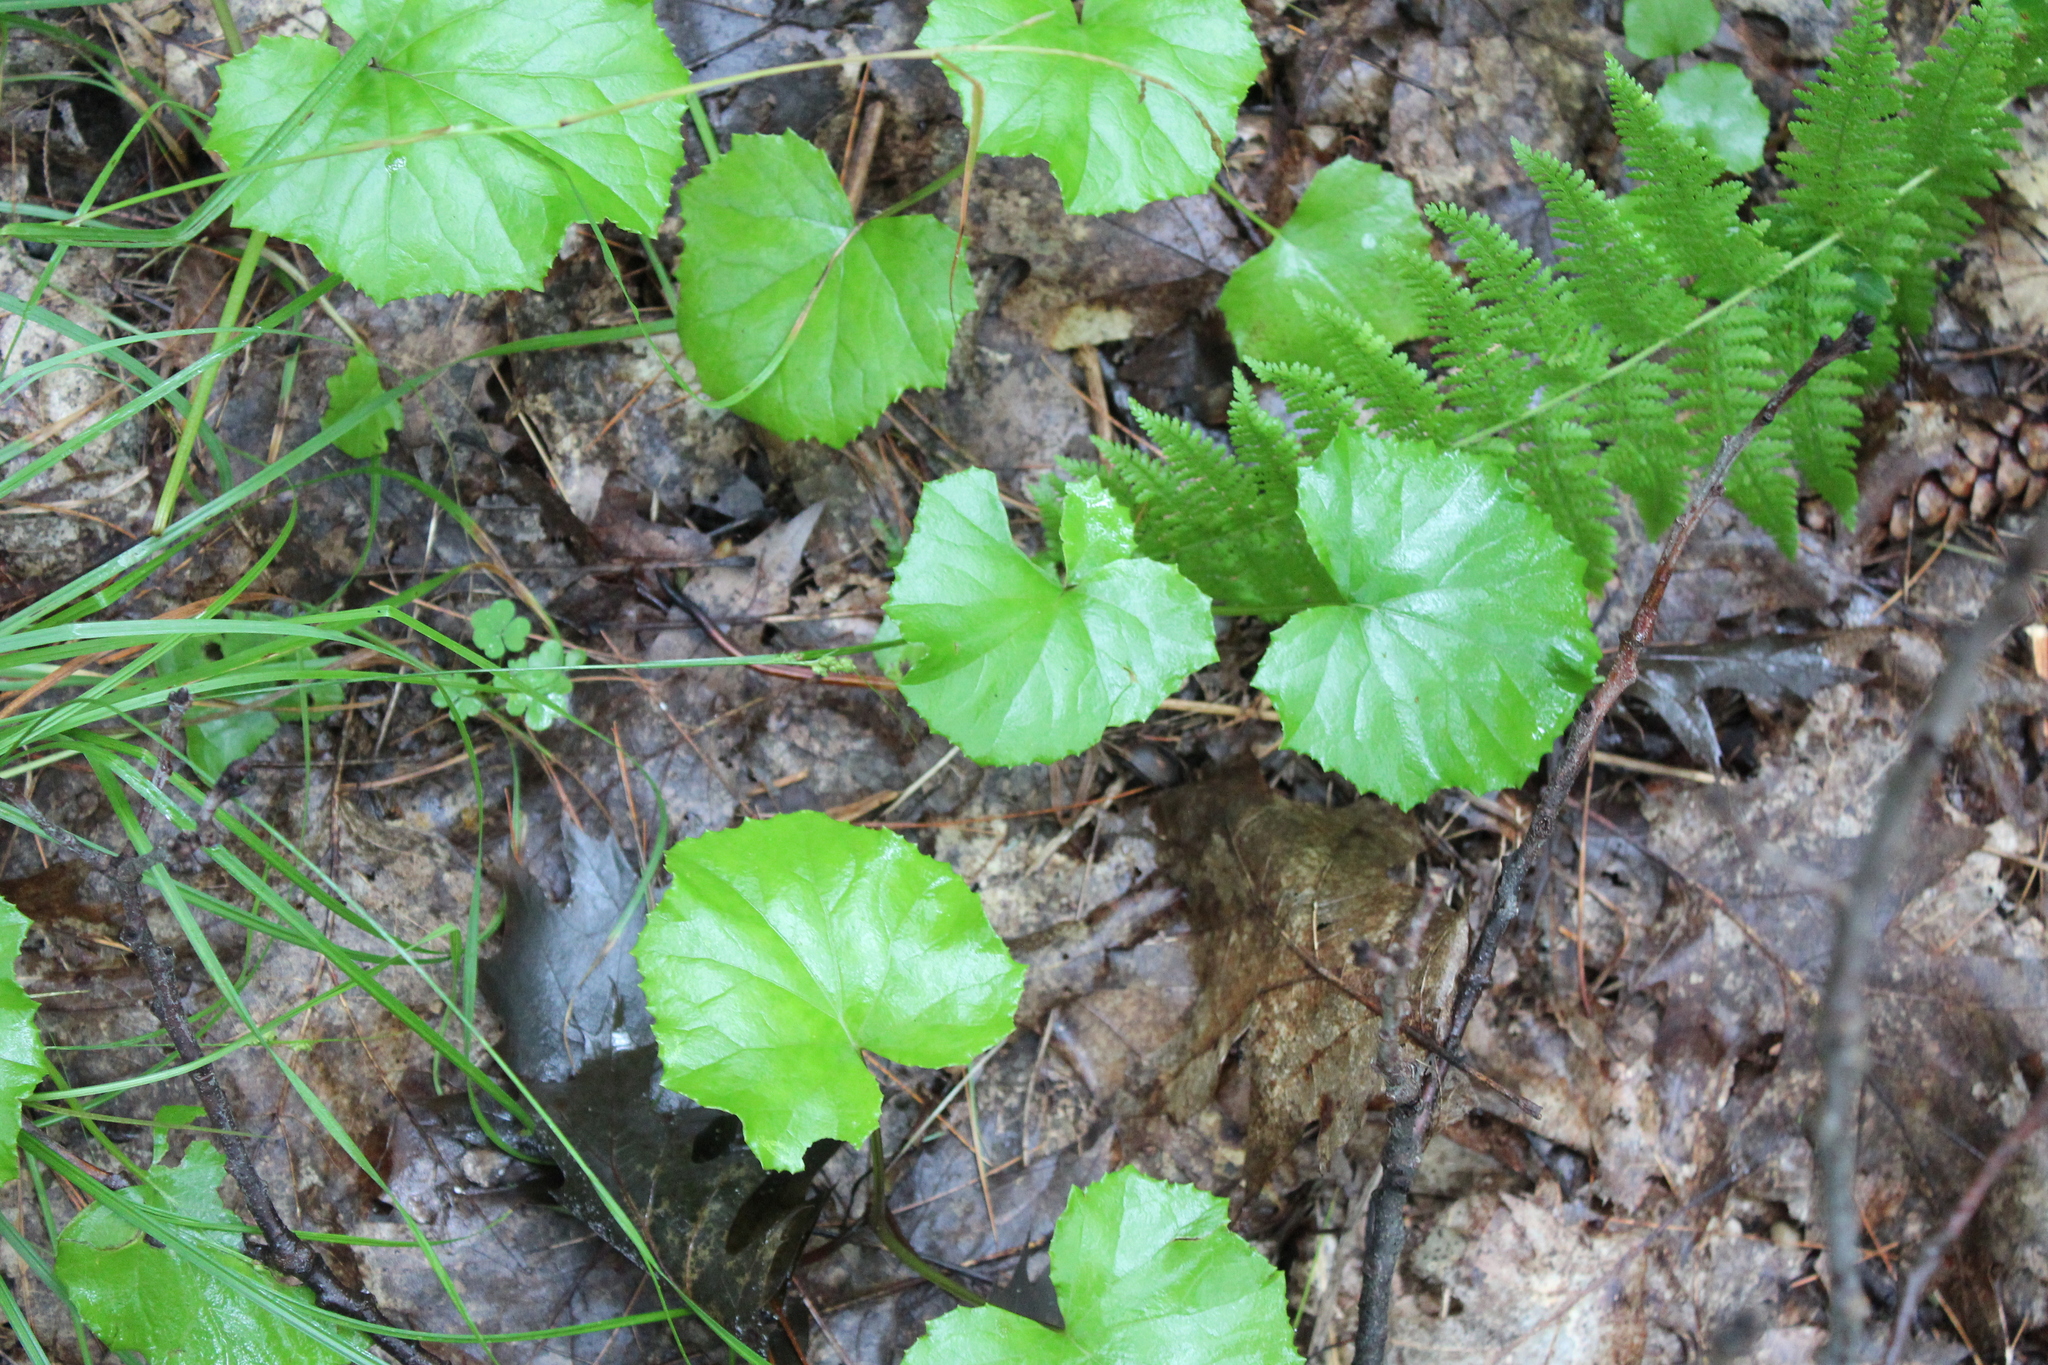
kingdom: Plantae
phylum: Tracheophyta
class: Magnoliopsida
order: Asterales
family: Asteraceae
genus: Tussilago
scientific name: Tussilago farfara
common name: Coltsfoot
